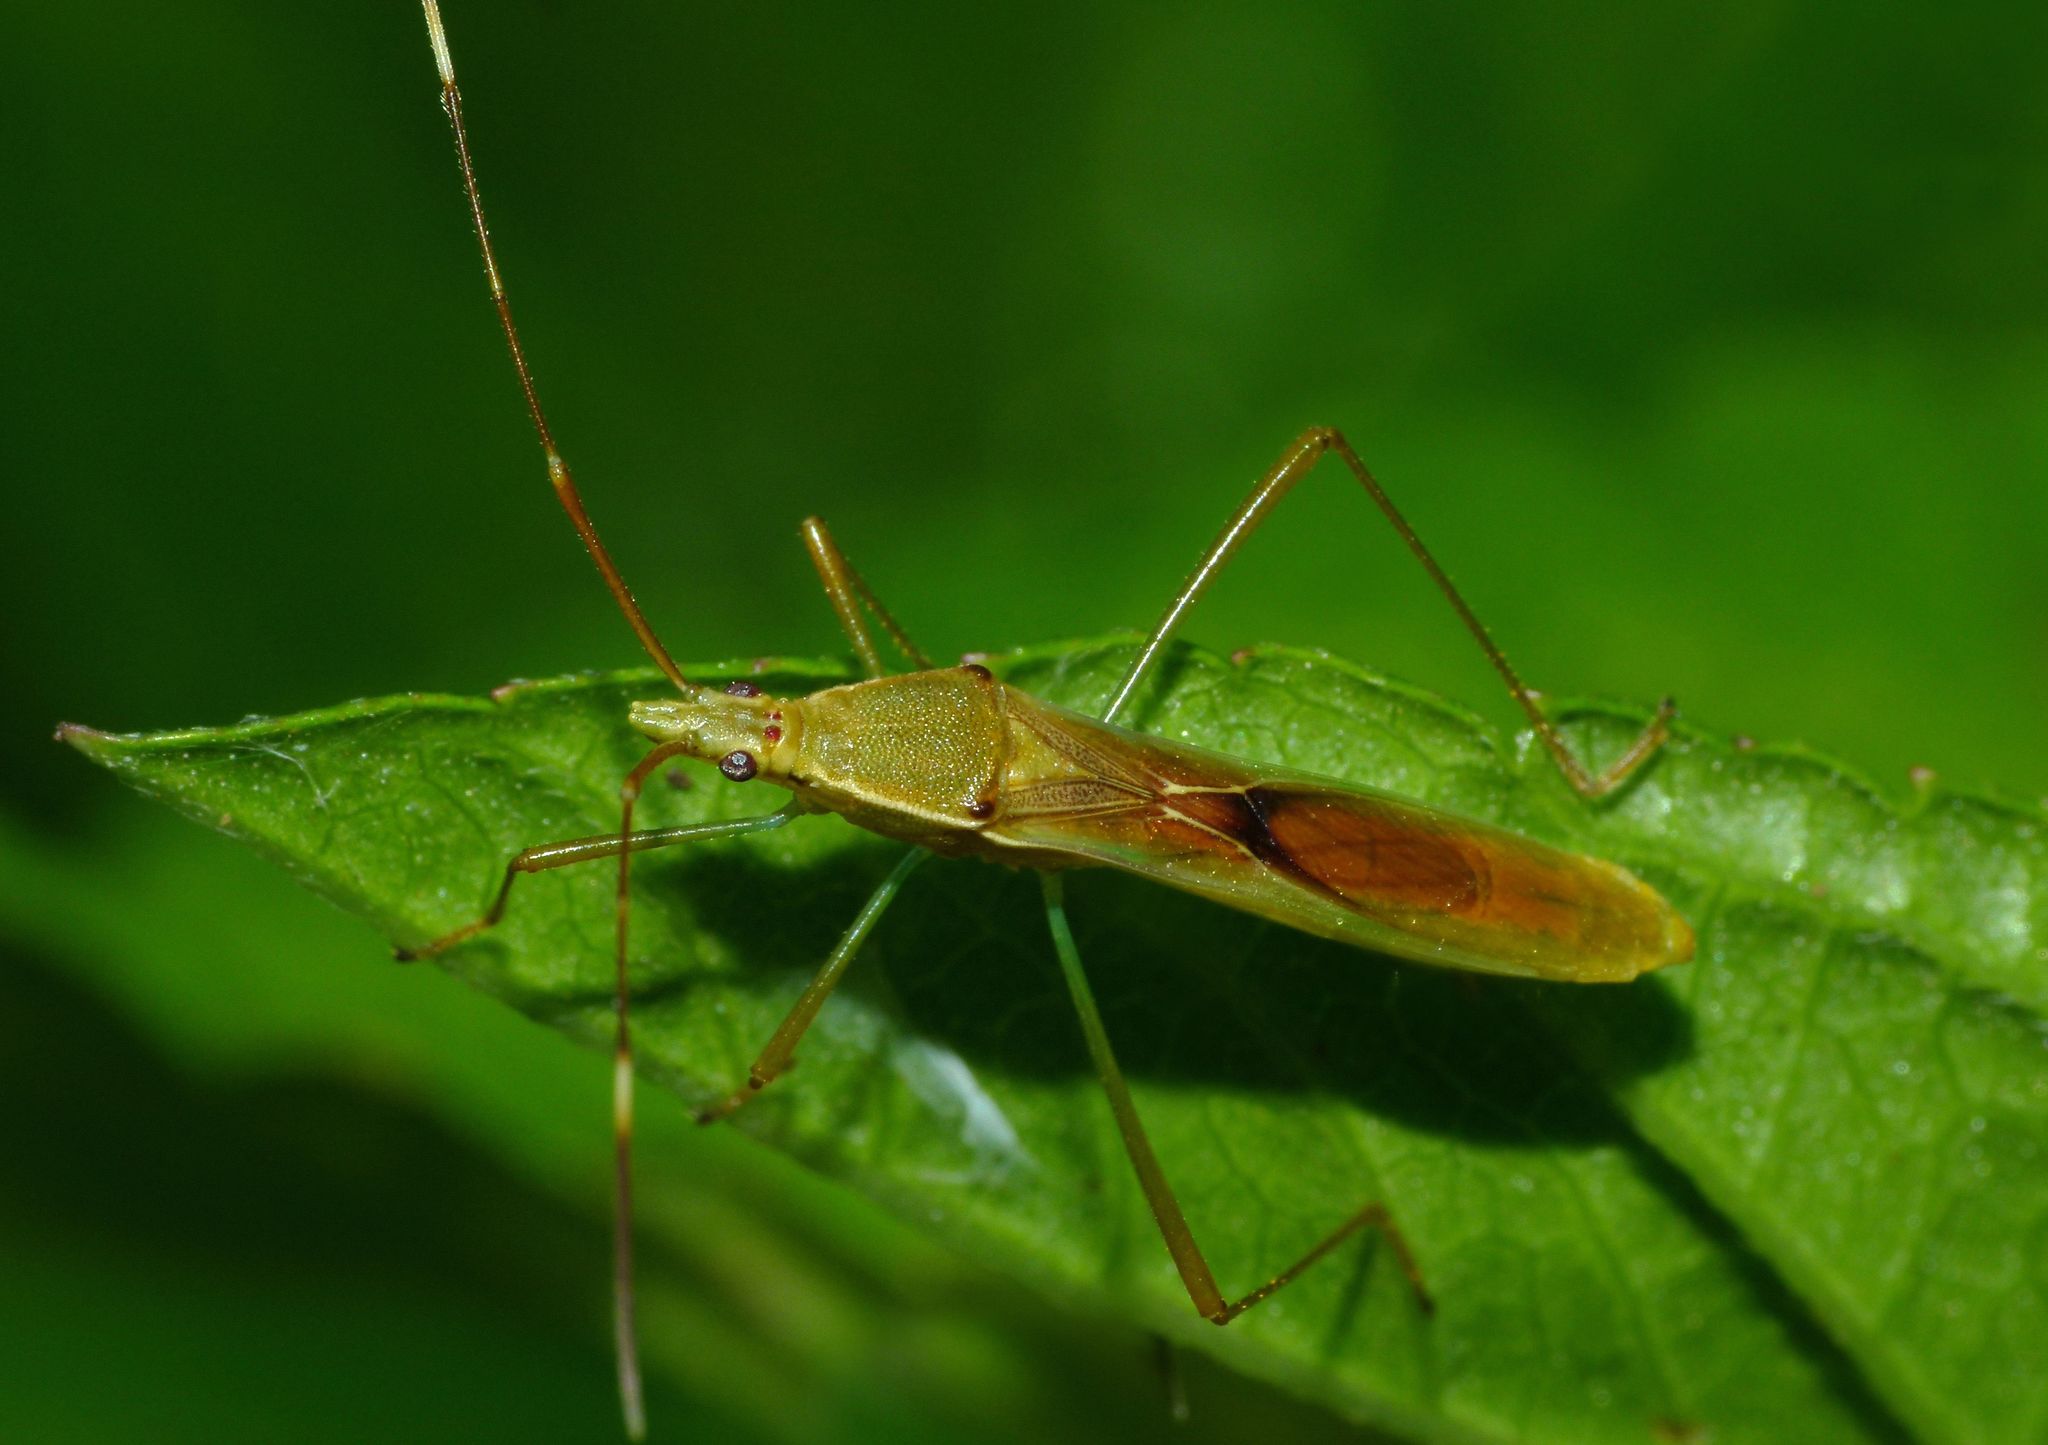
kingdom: Animalia
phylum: Arthropoda
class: Insecta
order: Hemiptera
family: Alydidae
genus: Leptocorisa
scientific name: Leptocorisa acuta
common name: Gandhi bug
